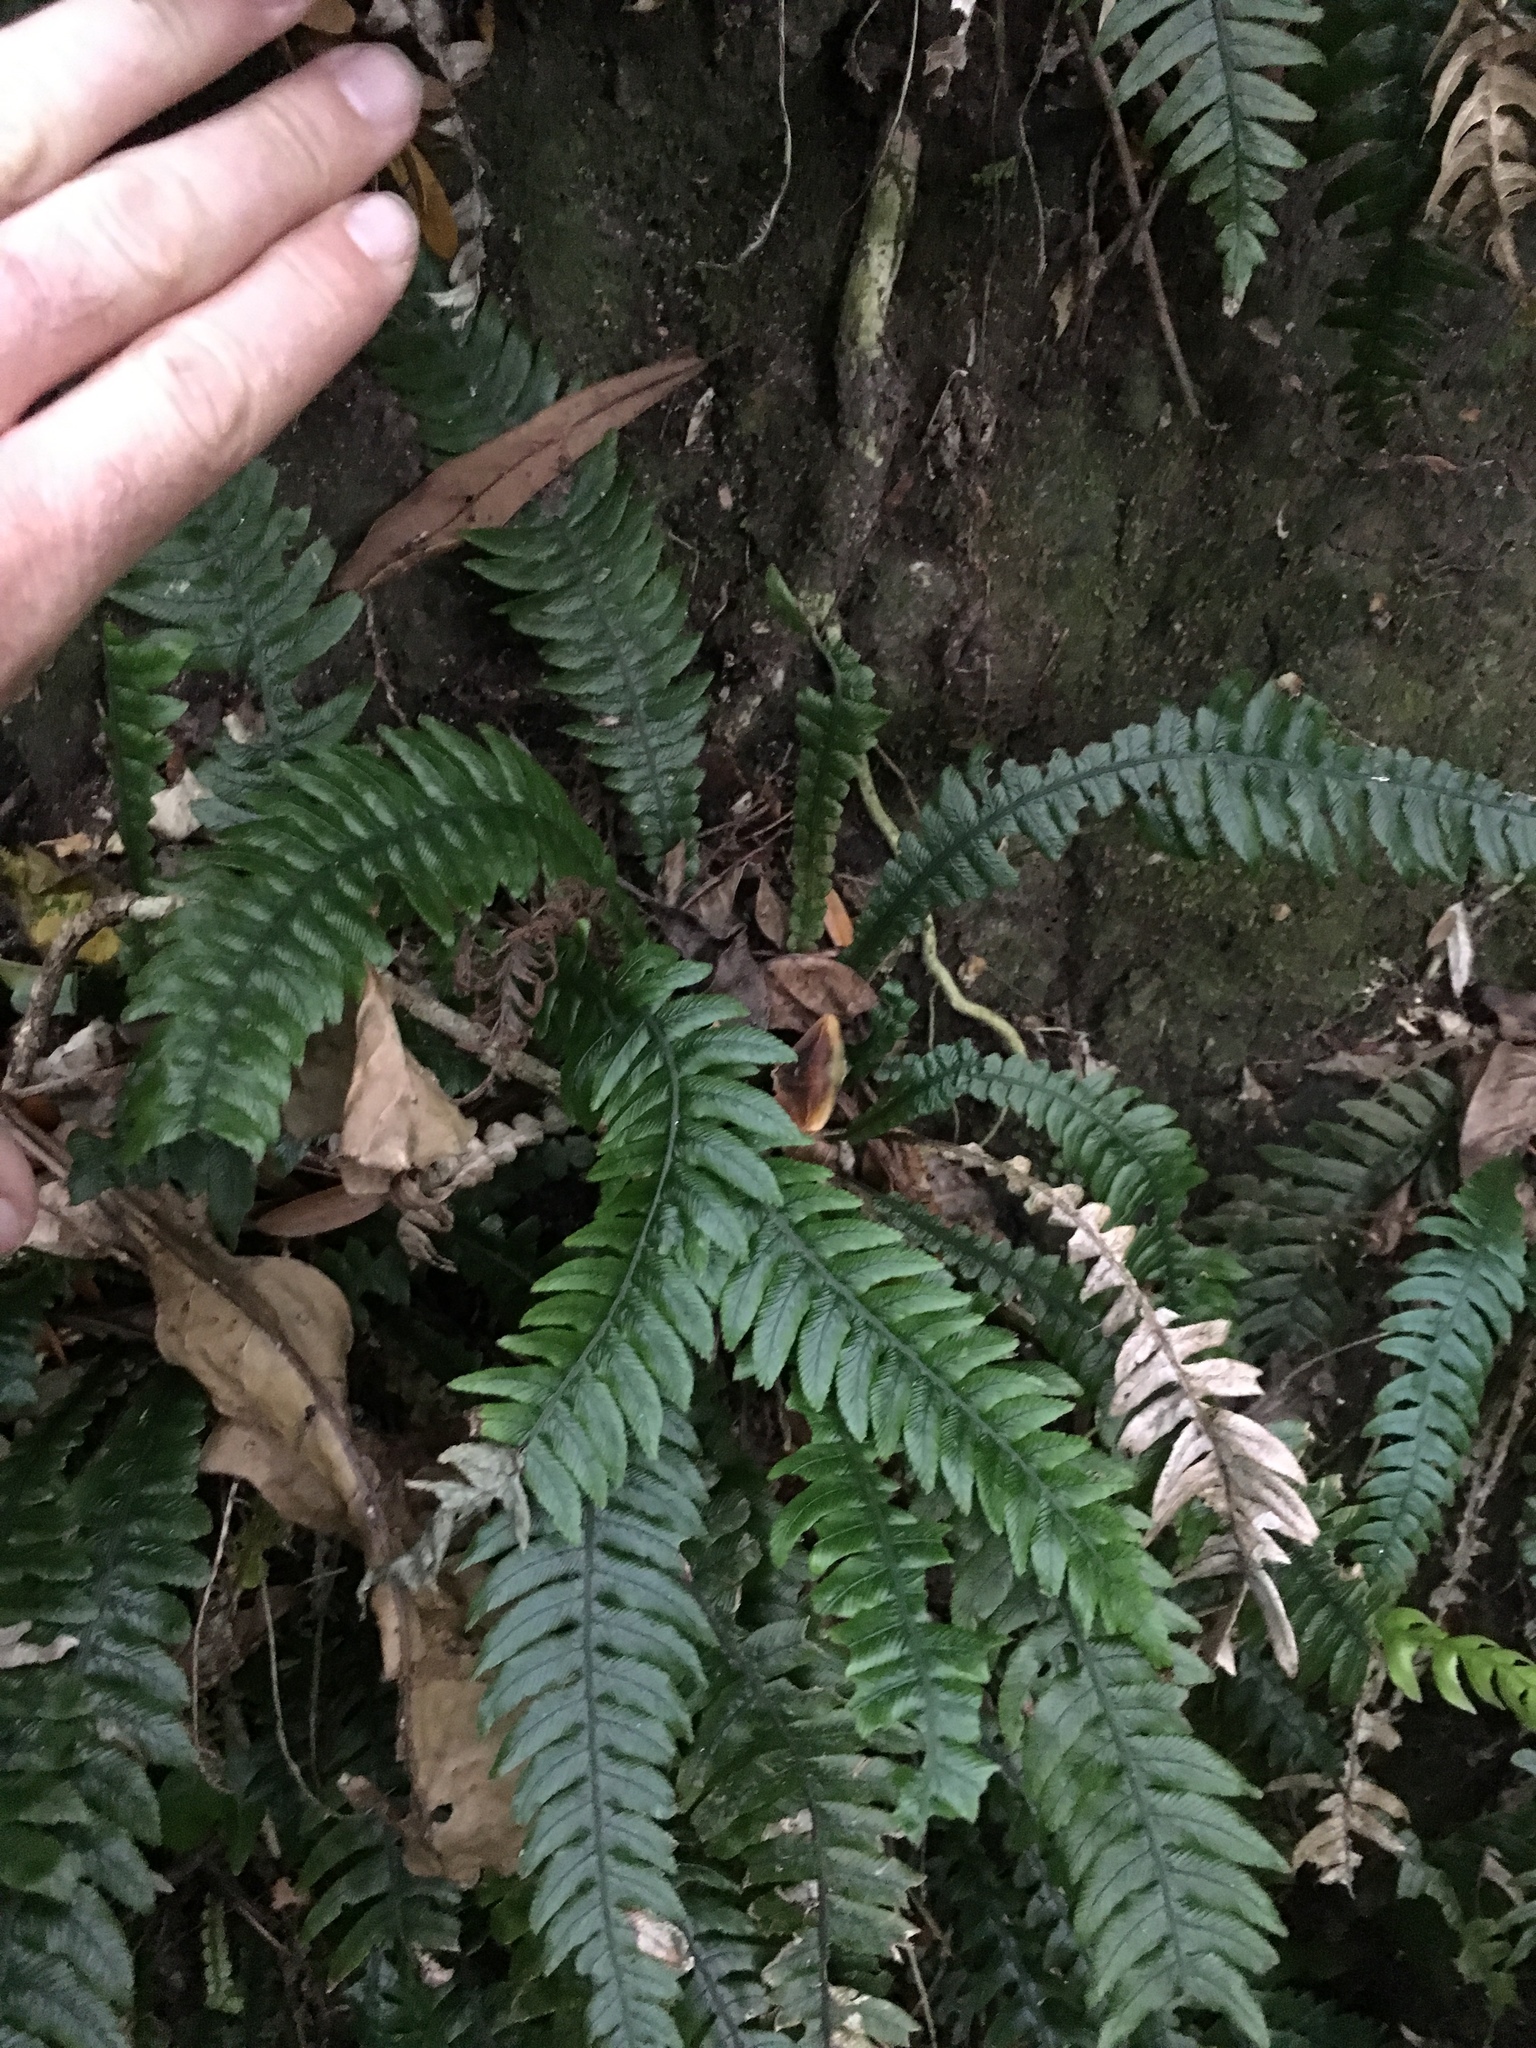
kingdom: Plantae
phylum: Tracheophyta
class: Polypodiopsida
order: Polypodiales
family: Blechnaceae
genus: Austroblechnum
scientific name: Austroblechnum lanceolatum
